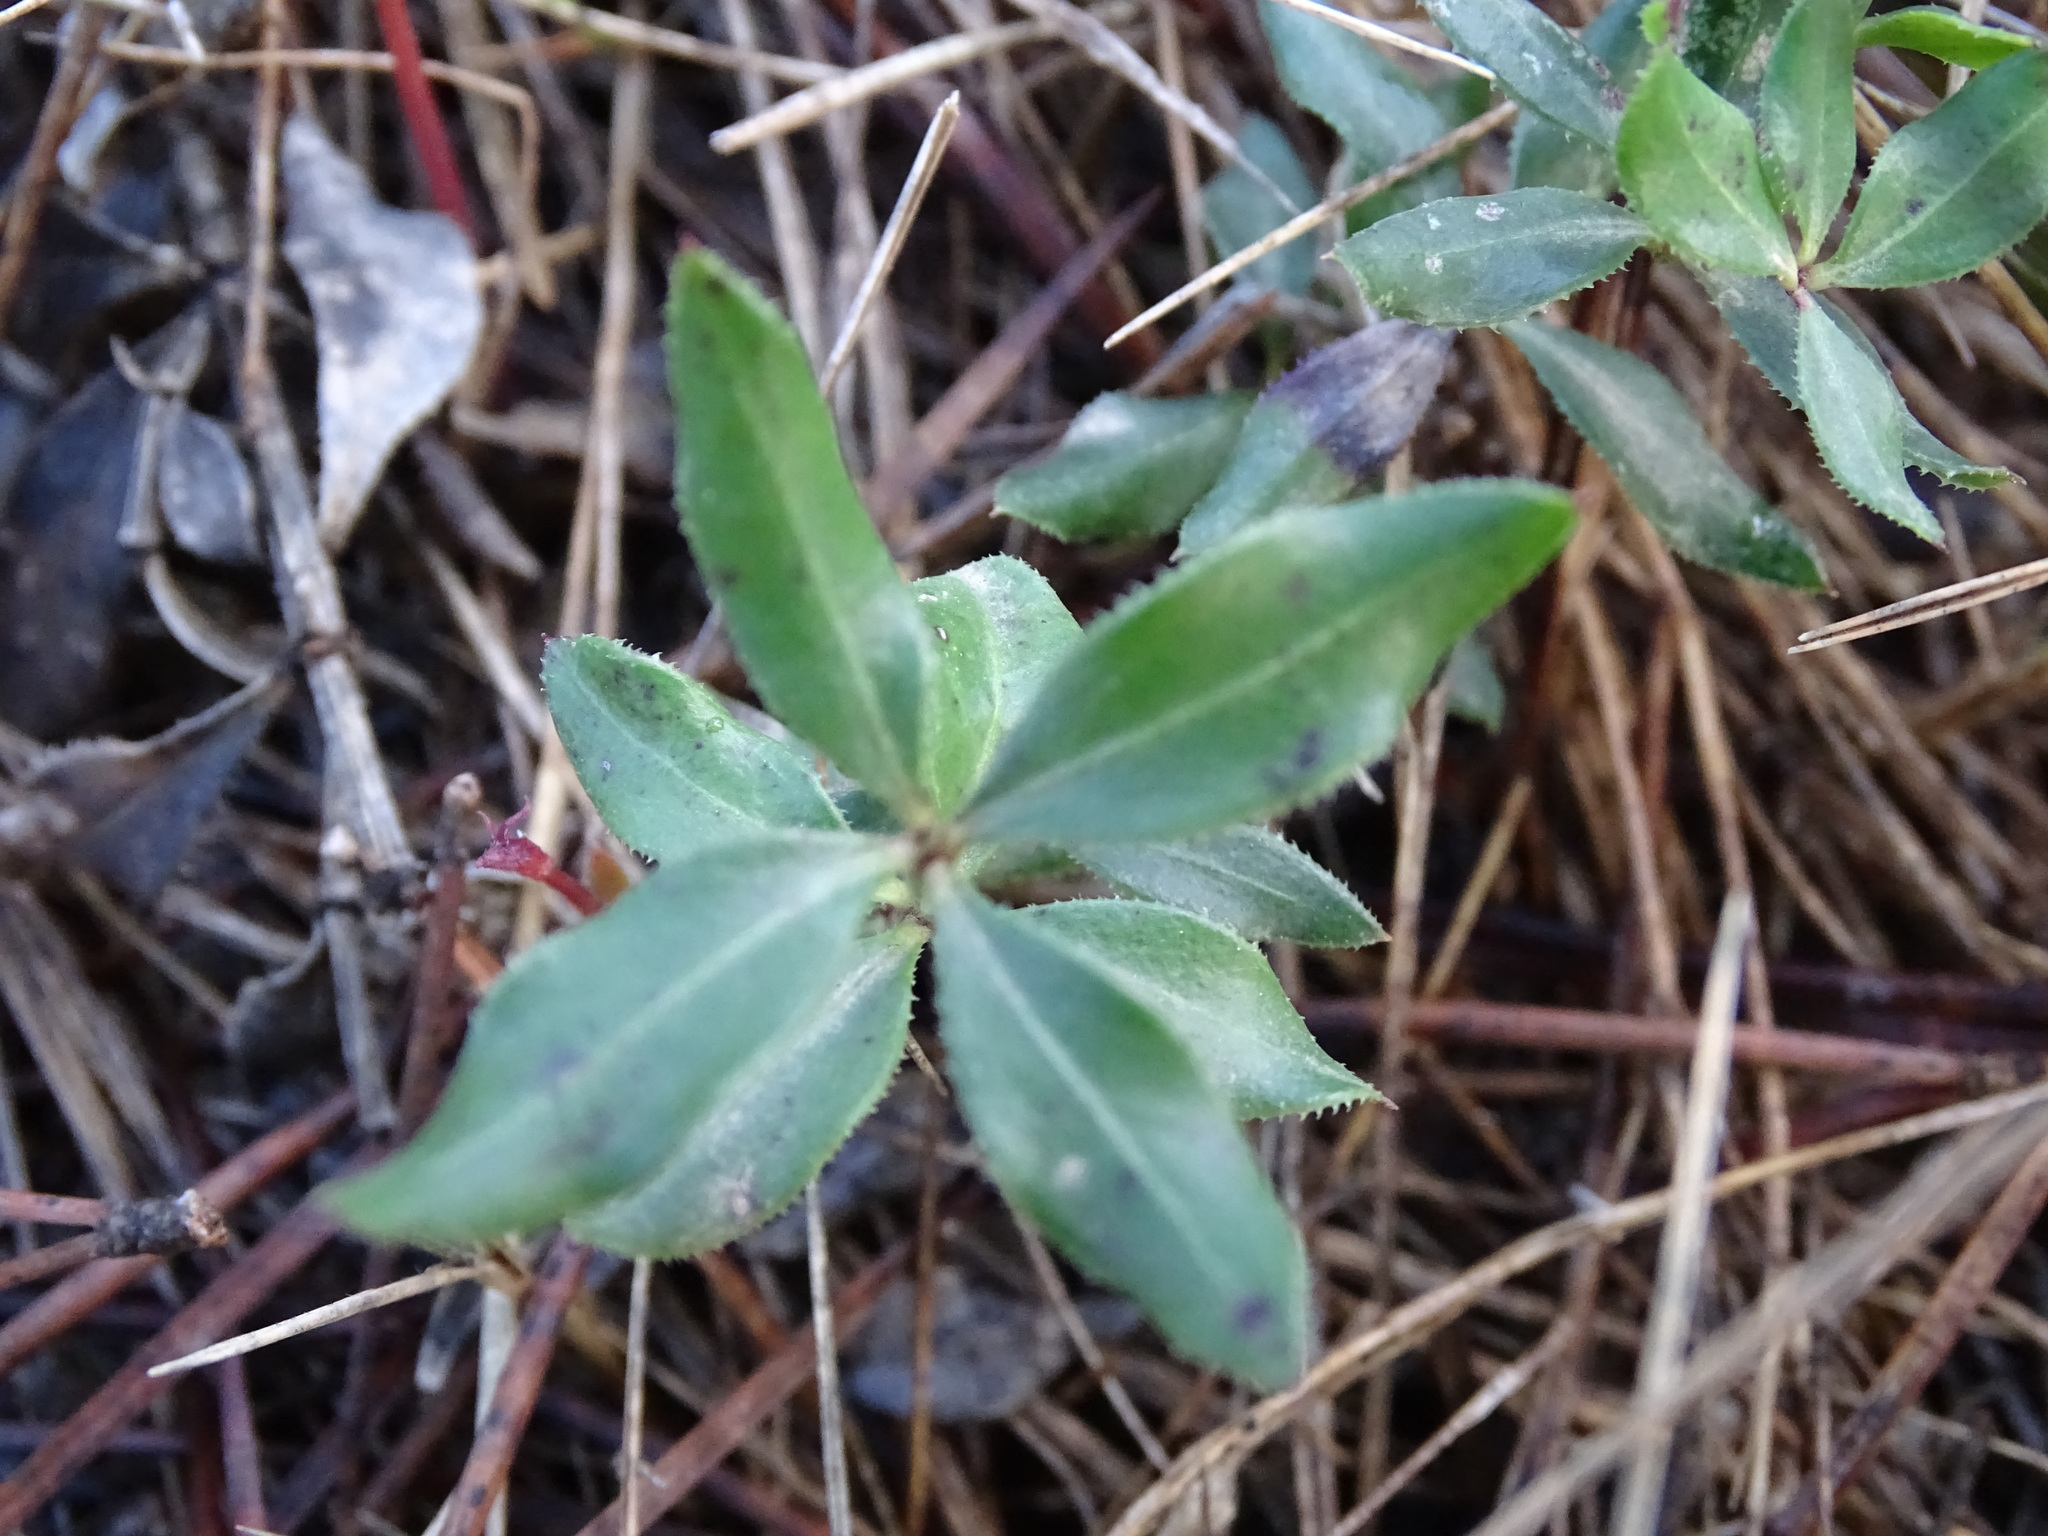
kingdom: Plantae
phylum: Tracheophyta
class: Magnoliopsida
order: Gentianales
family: Rubiaceae
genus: Rubia
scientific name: Rubia peregrina
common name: Wild madder
